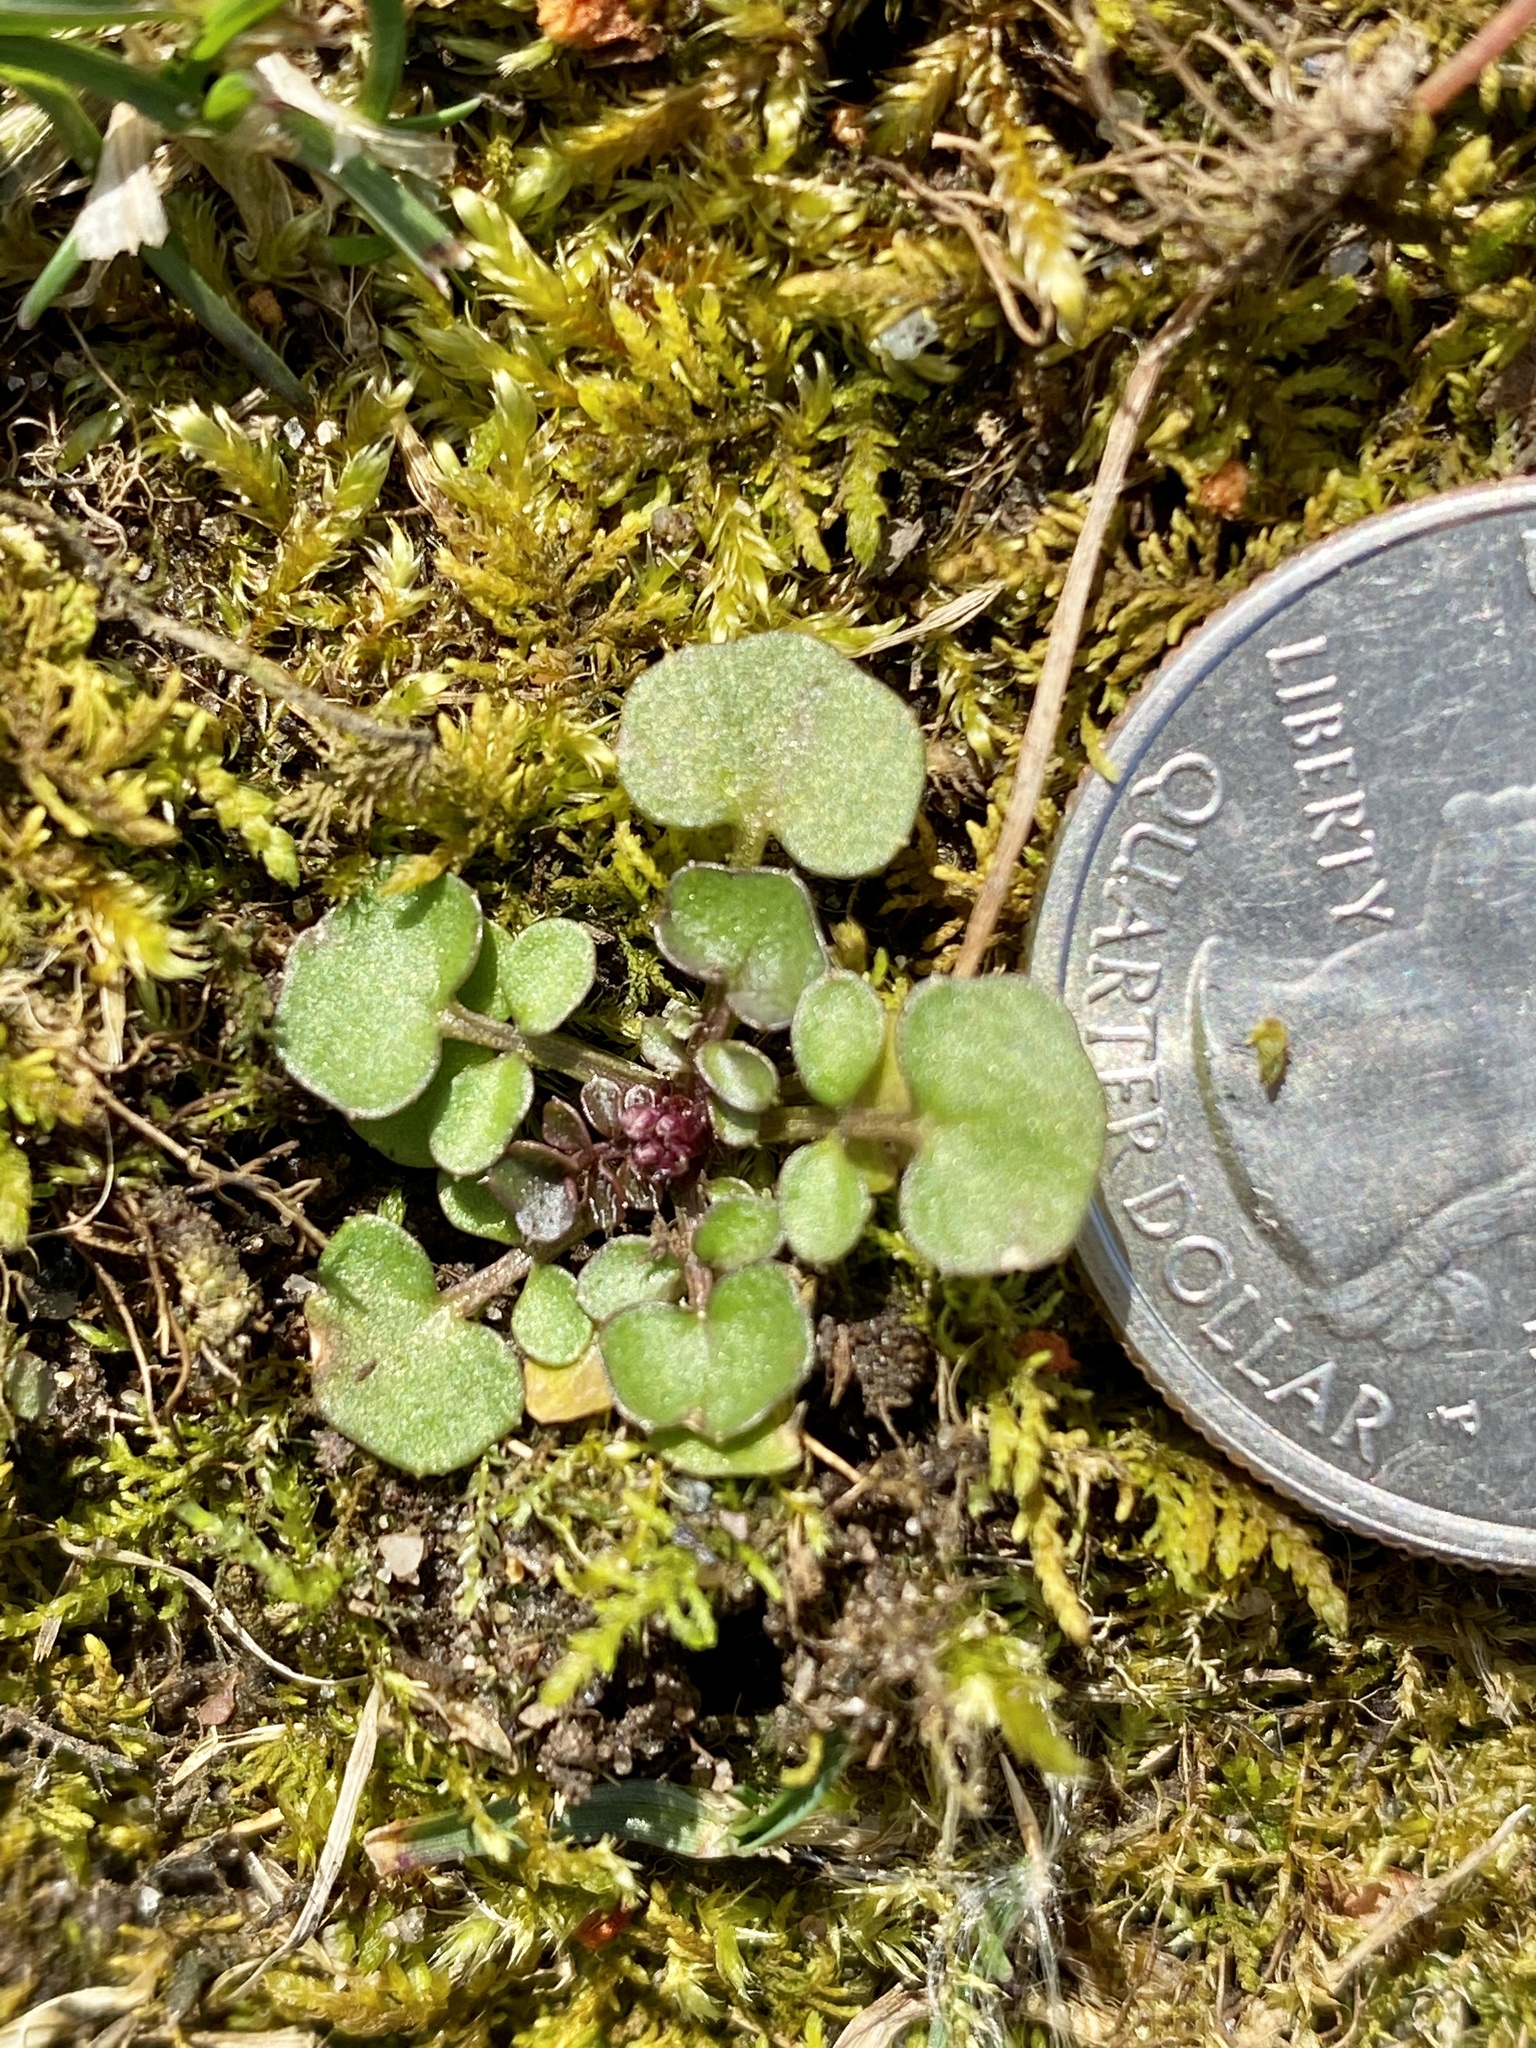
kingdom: Plantae
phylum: Tracheophyta
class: Magnoliopsida
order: Brassicales
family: Brassicaceae
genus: Cardamine
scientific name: Cardamine hirsuta
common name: Hairy bittercress
